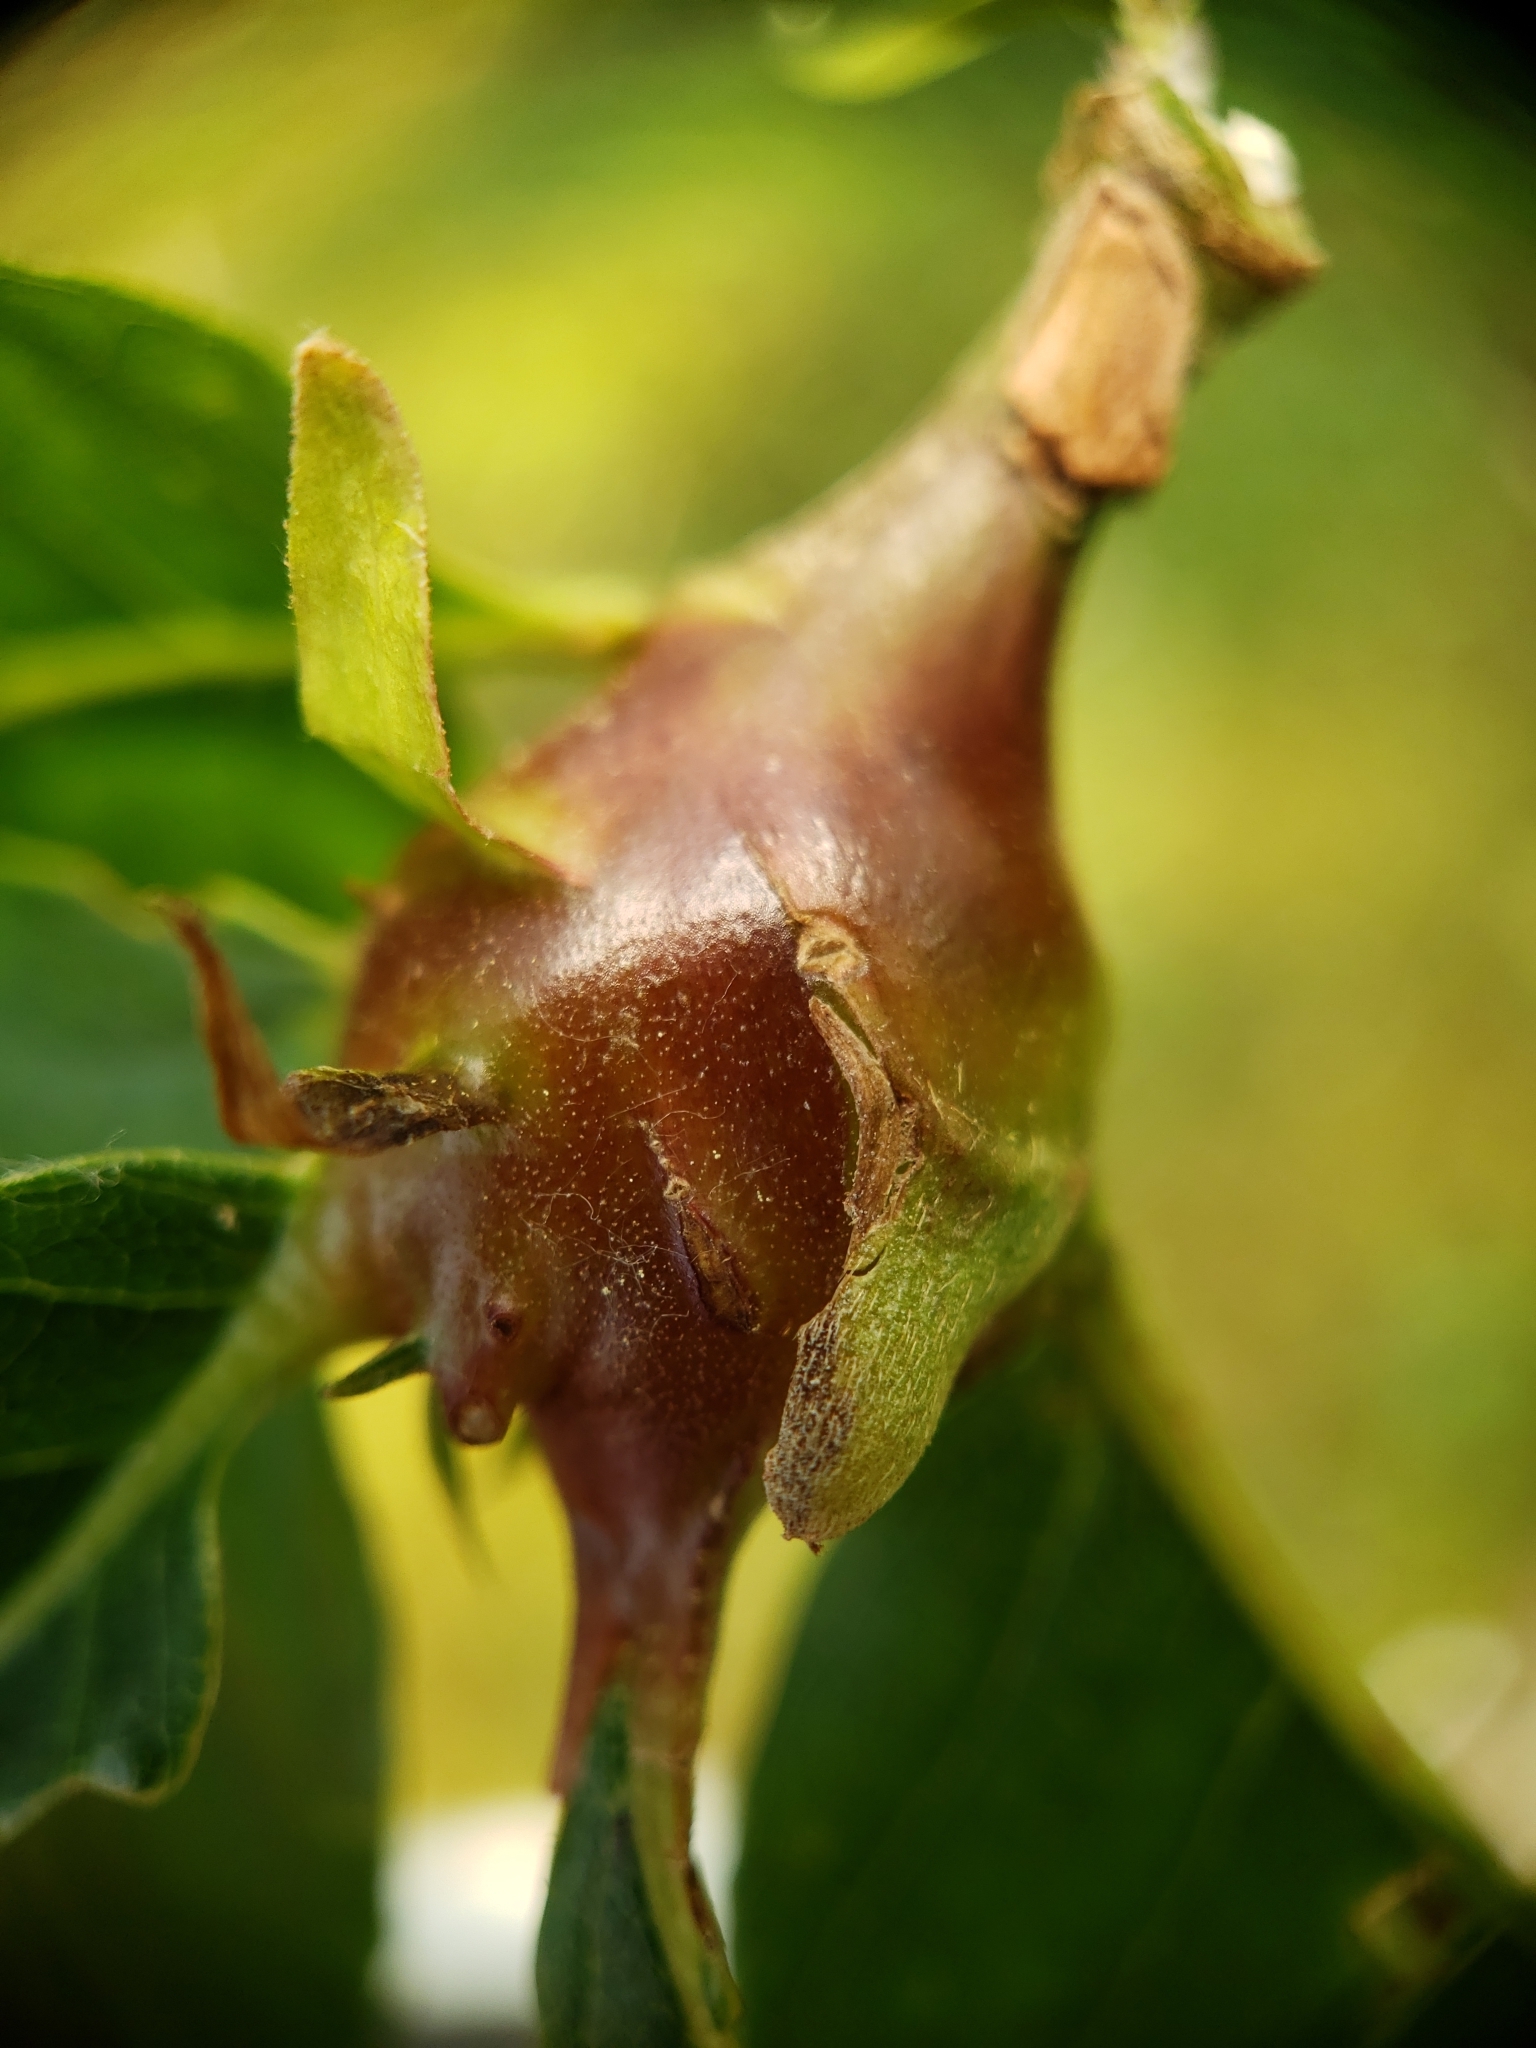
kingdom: Animalia
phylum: Arthropoda
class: Insecta
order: Hymenoptera
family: Cynipidae
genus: Dryocosmus
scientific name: Dryocosmus kuriphilus
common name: Asian chestnut gall wasp
